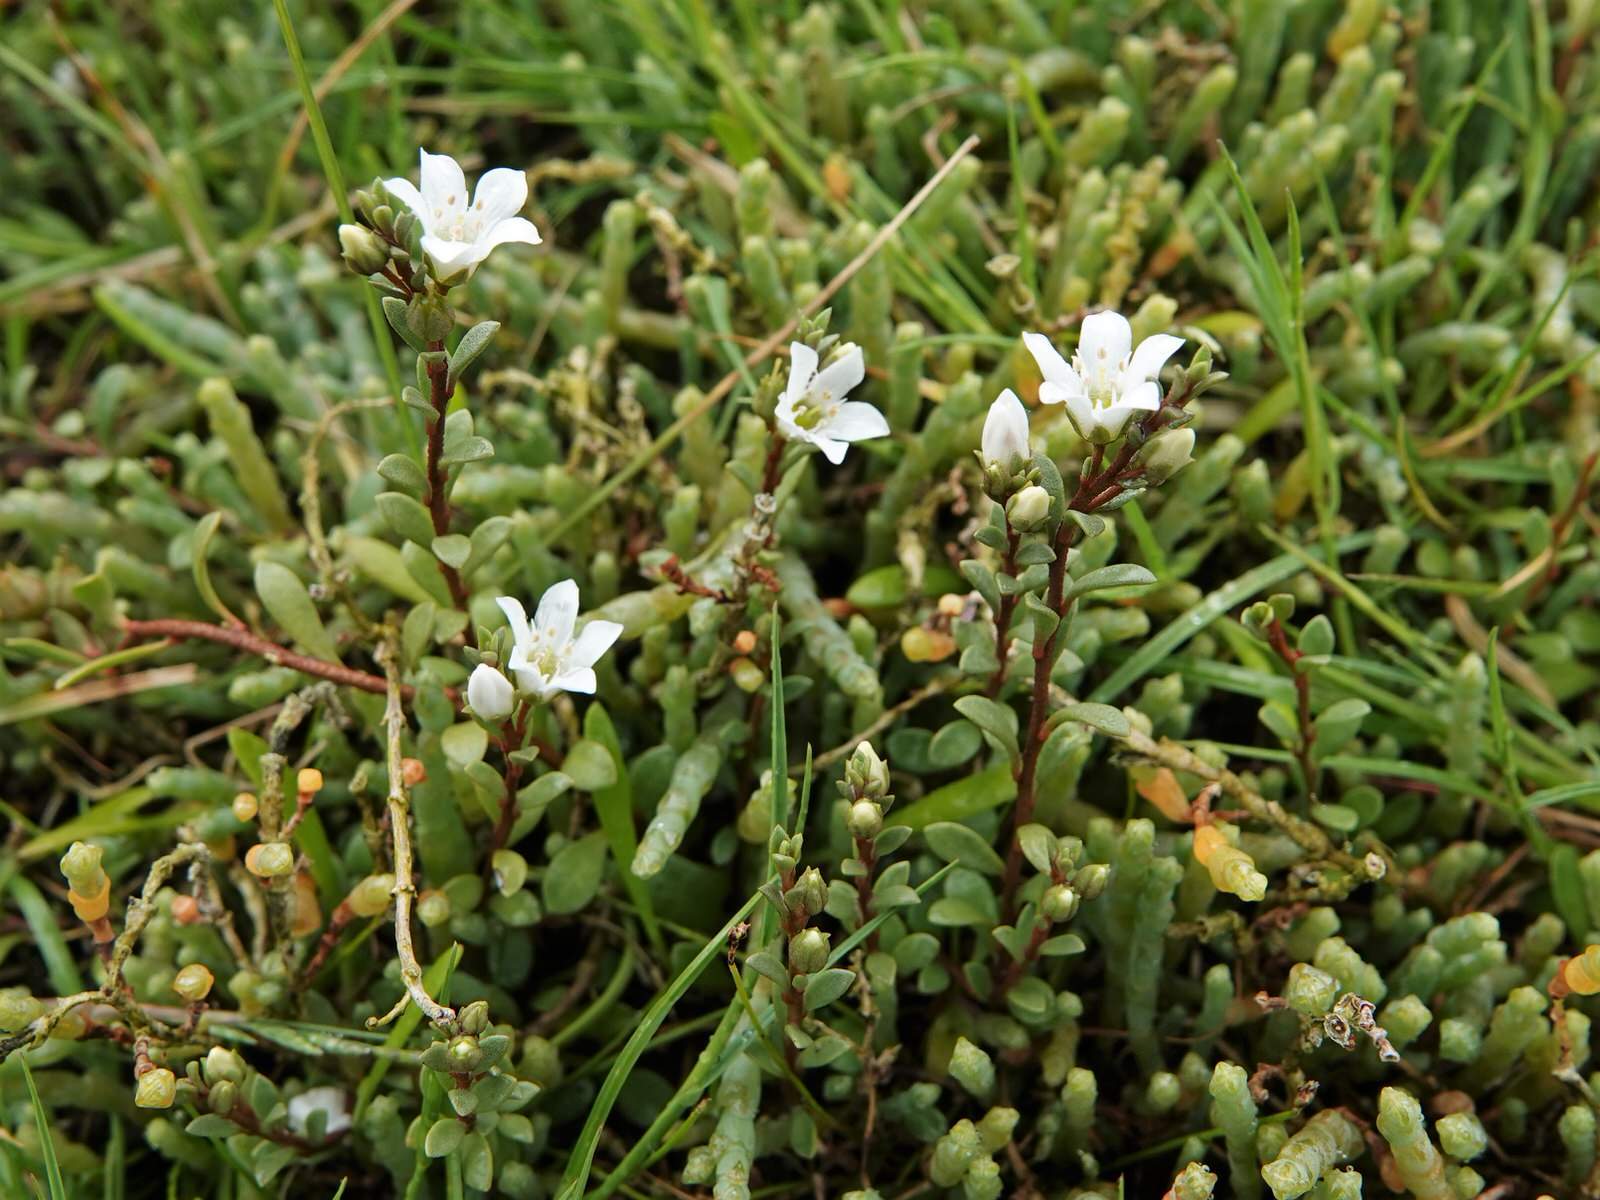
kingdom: Plantae
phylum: Tracheophyta
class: Magnoliopsida
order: Ericales
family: Primulaceae
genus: Samolus
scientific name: Samolus repens
